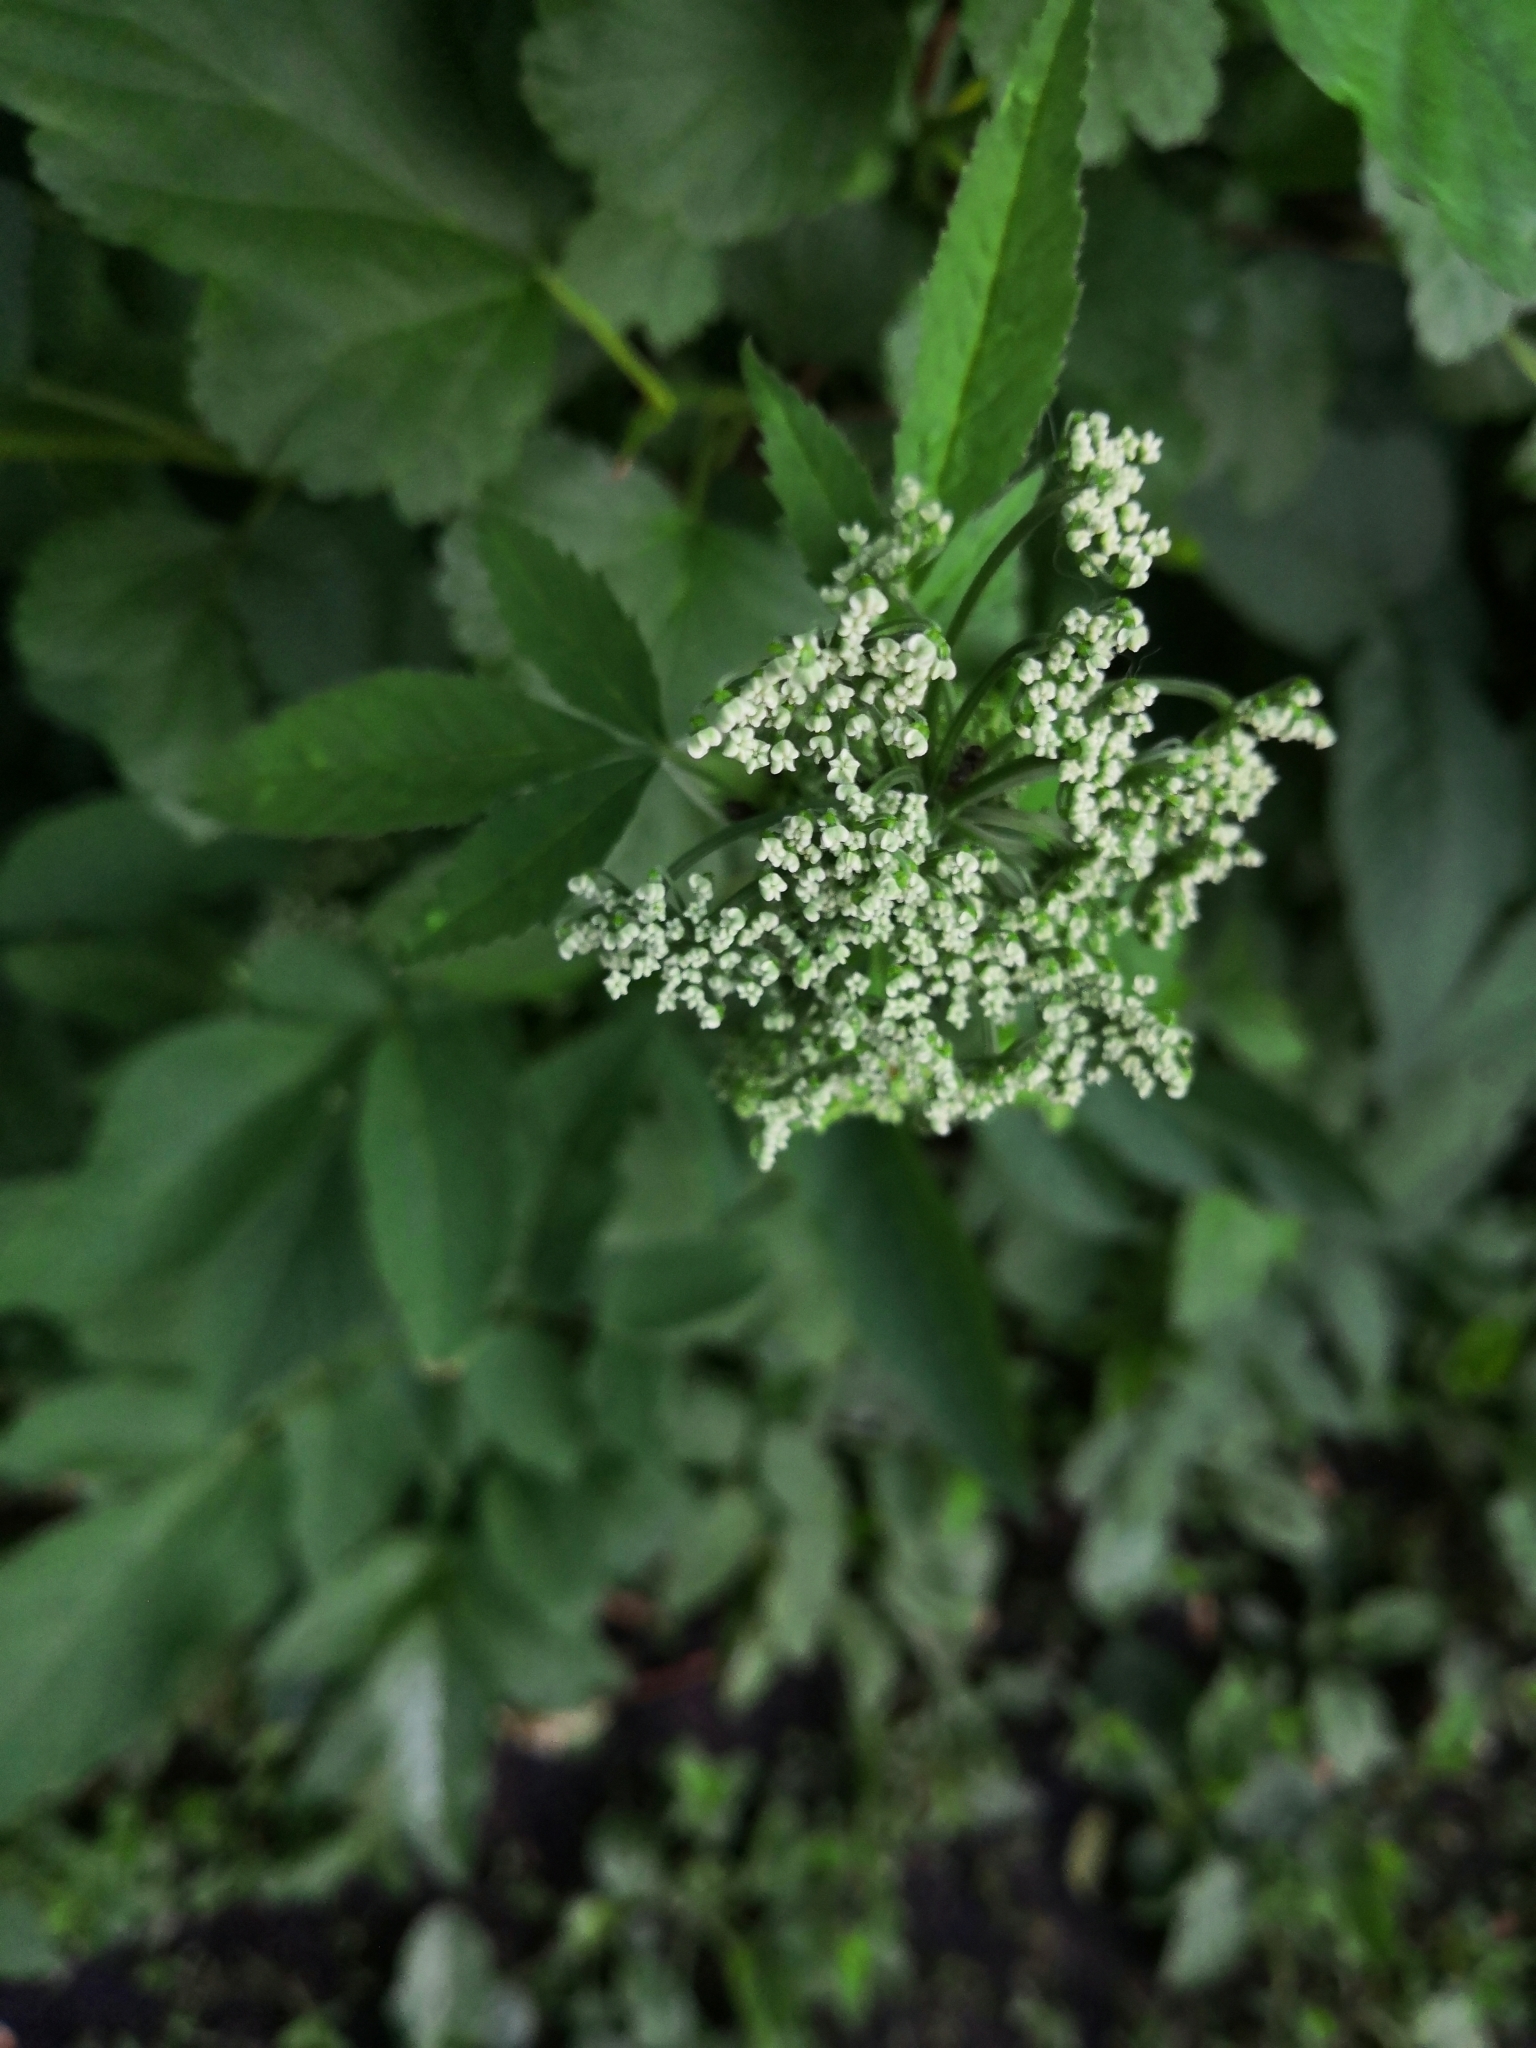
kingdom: Plantae
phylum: Tracheophyta
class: Magnoliopsida
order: Apiales
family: Apiaceae
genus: Aegopodium
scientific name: Aegopodium podagraria
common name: Ground-elder
